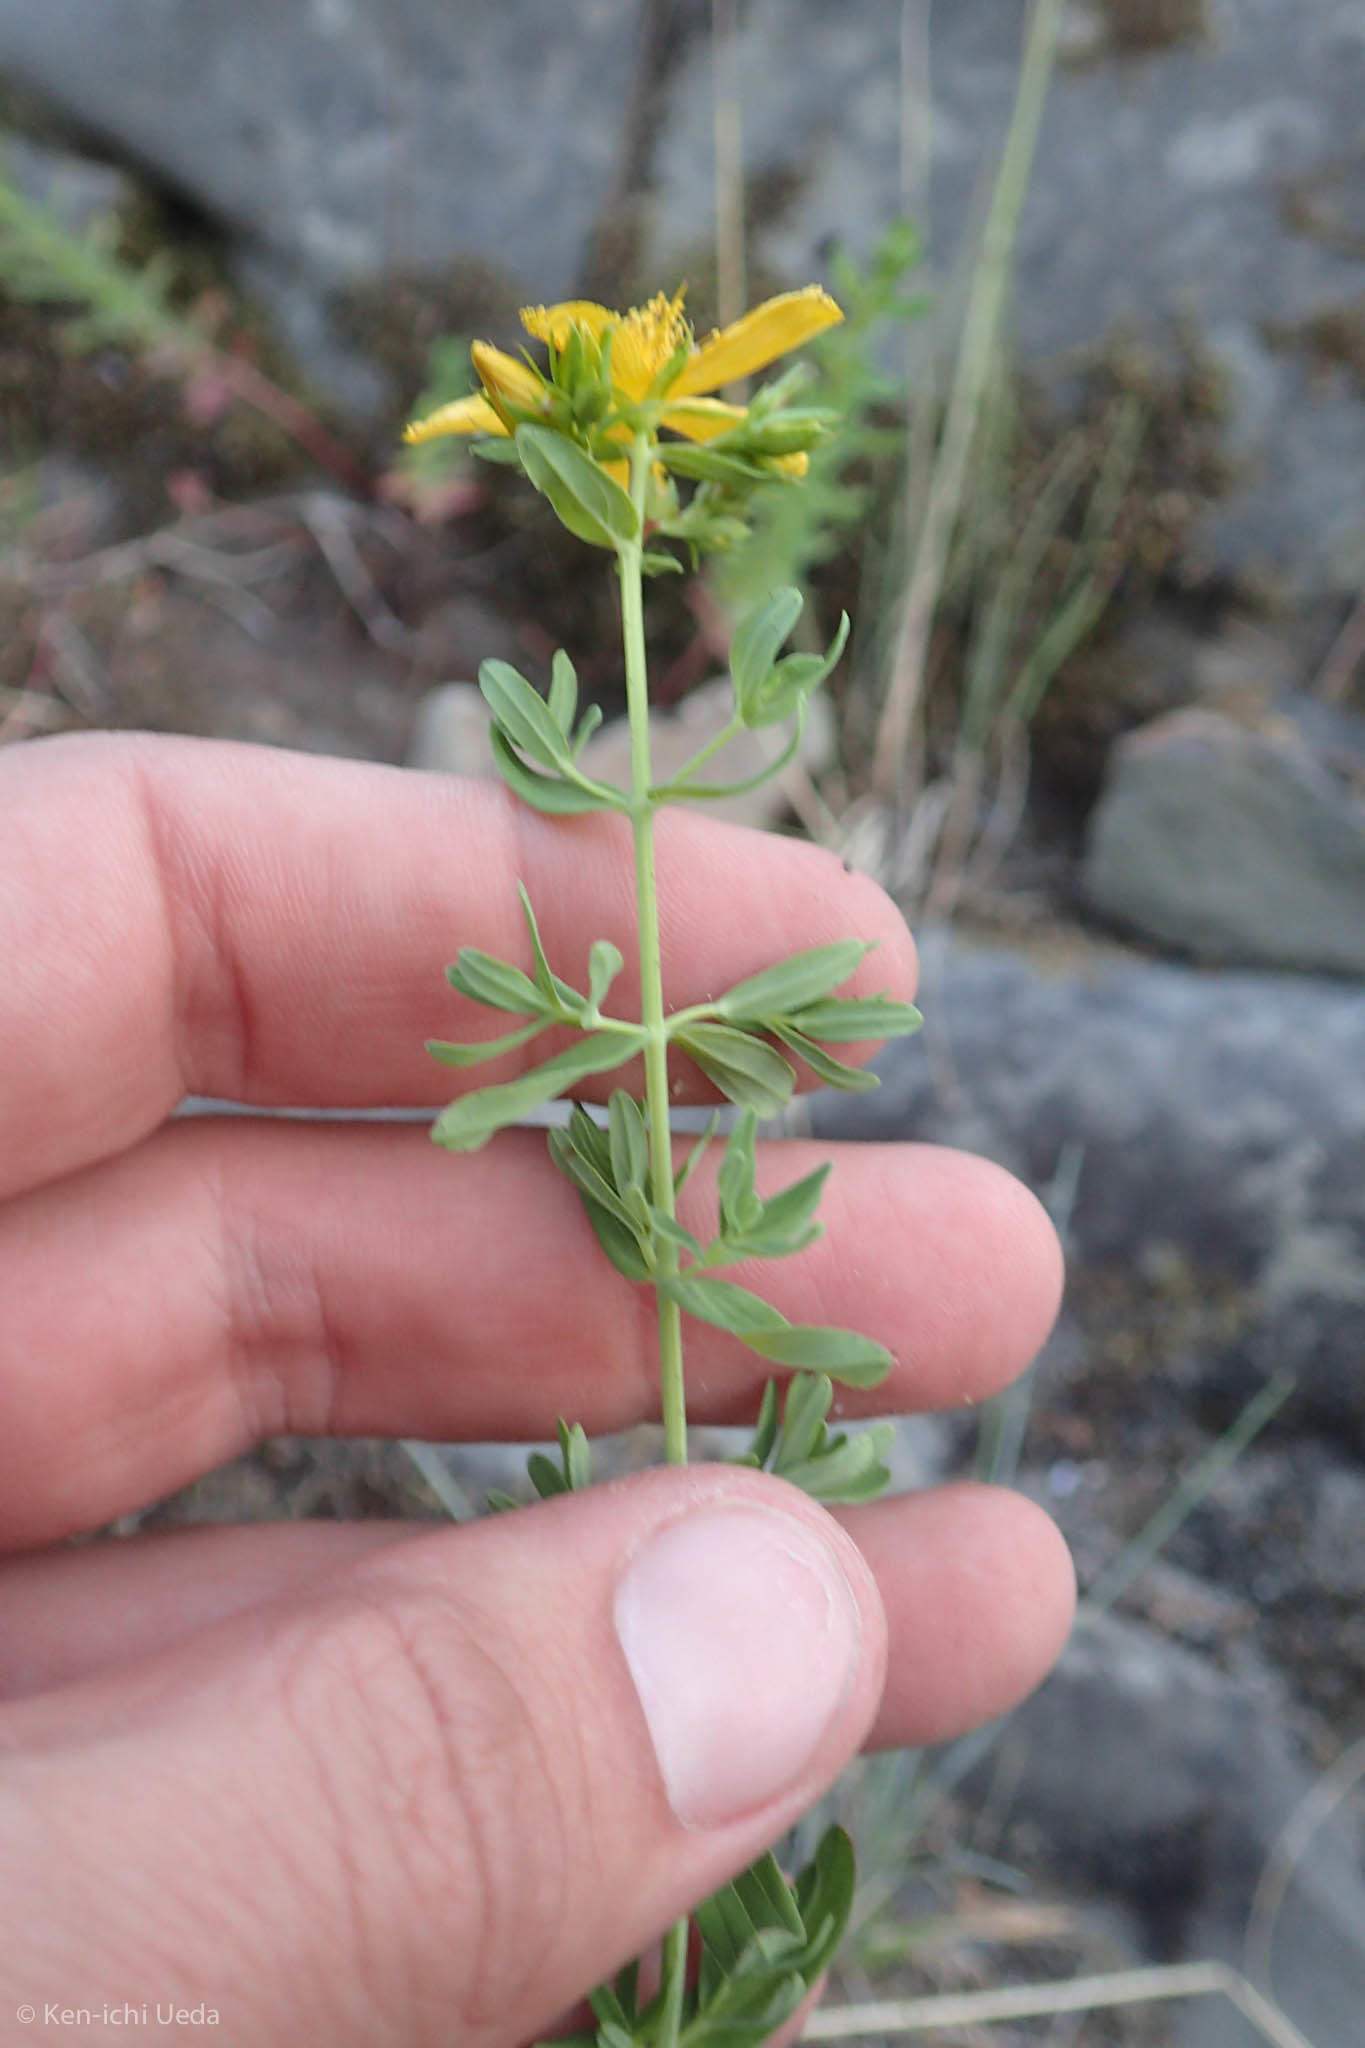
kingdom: Plantae
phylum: Tracheophyta
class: Magnoliopsida
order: Malpighiales
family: Hypericaceae
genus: Hypericum
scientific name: Hypericum perforatum
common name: Common st. johnswort
